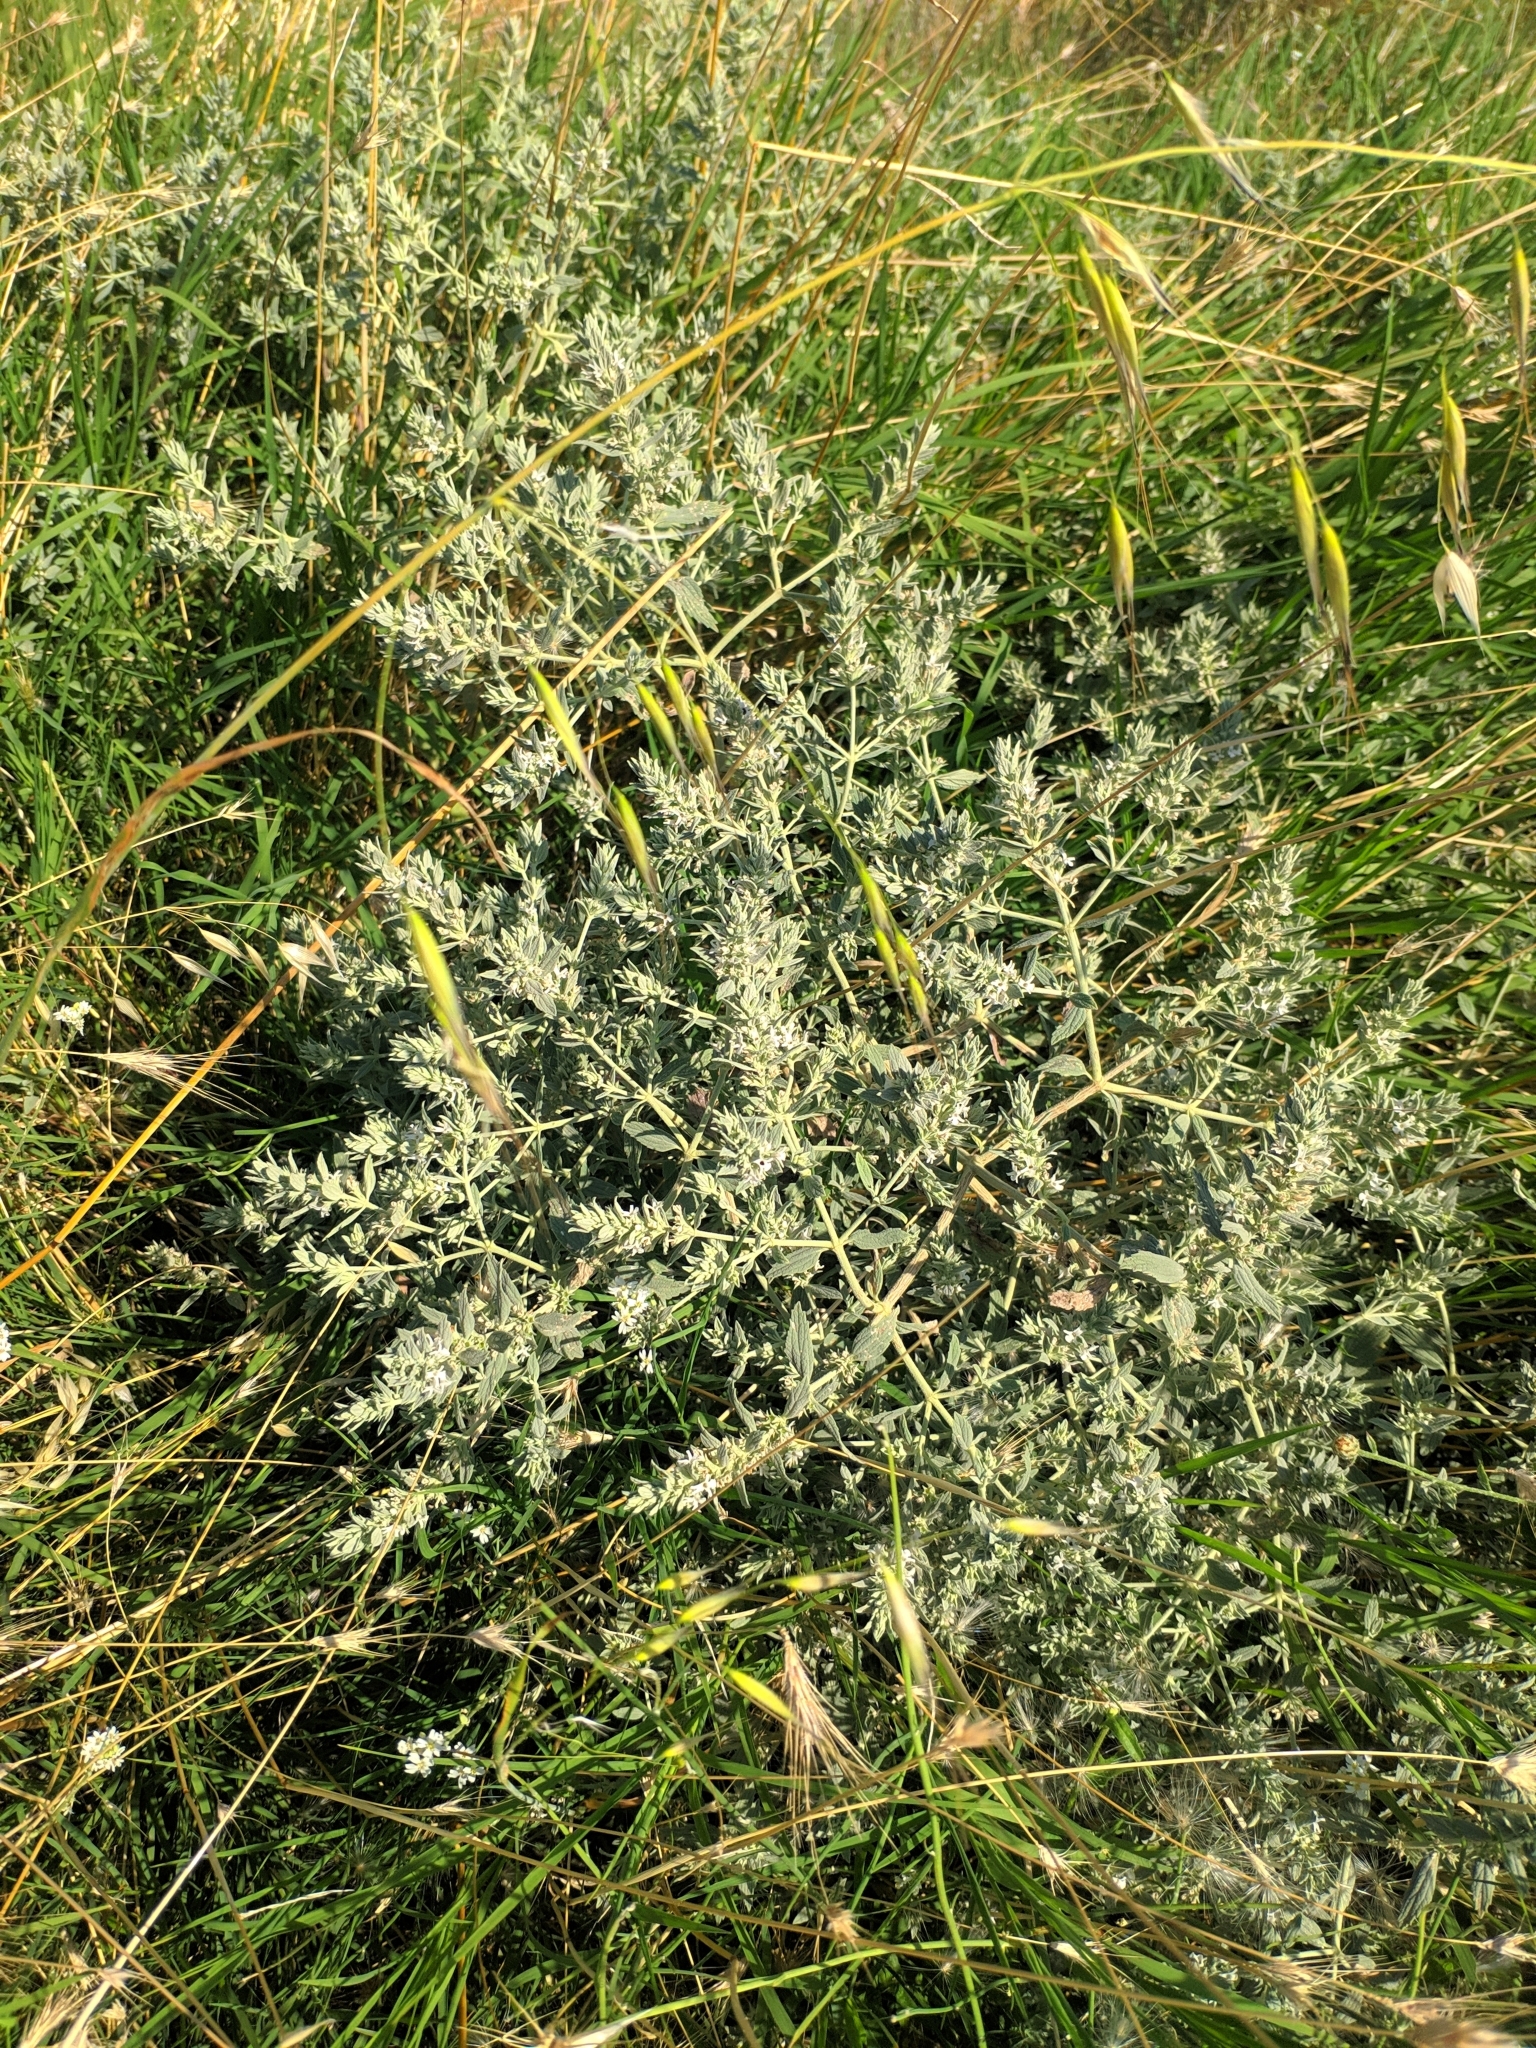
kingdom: Plantae
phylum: Tracheophyta
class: Magnoliopsida
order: Lamiales
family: Lamiaceae
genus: Marrubium
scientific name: Marrubium peregrinum
